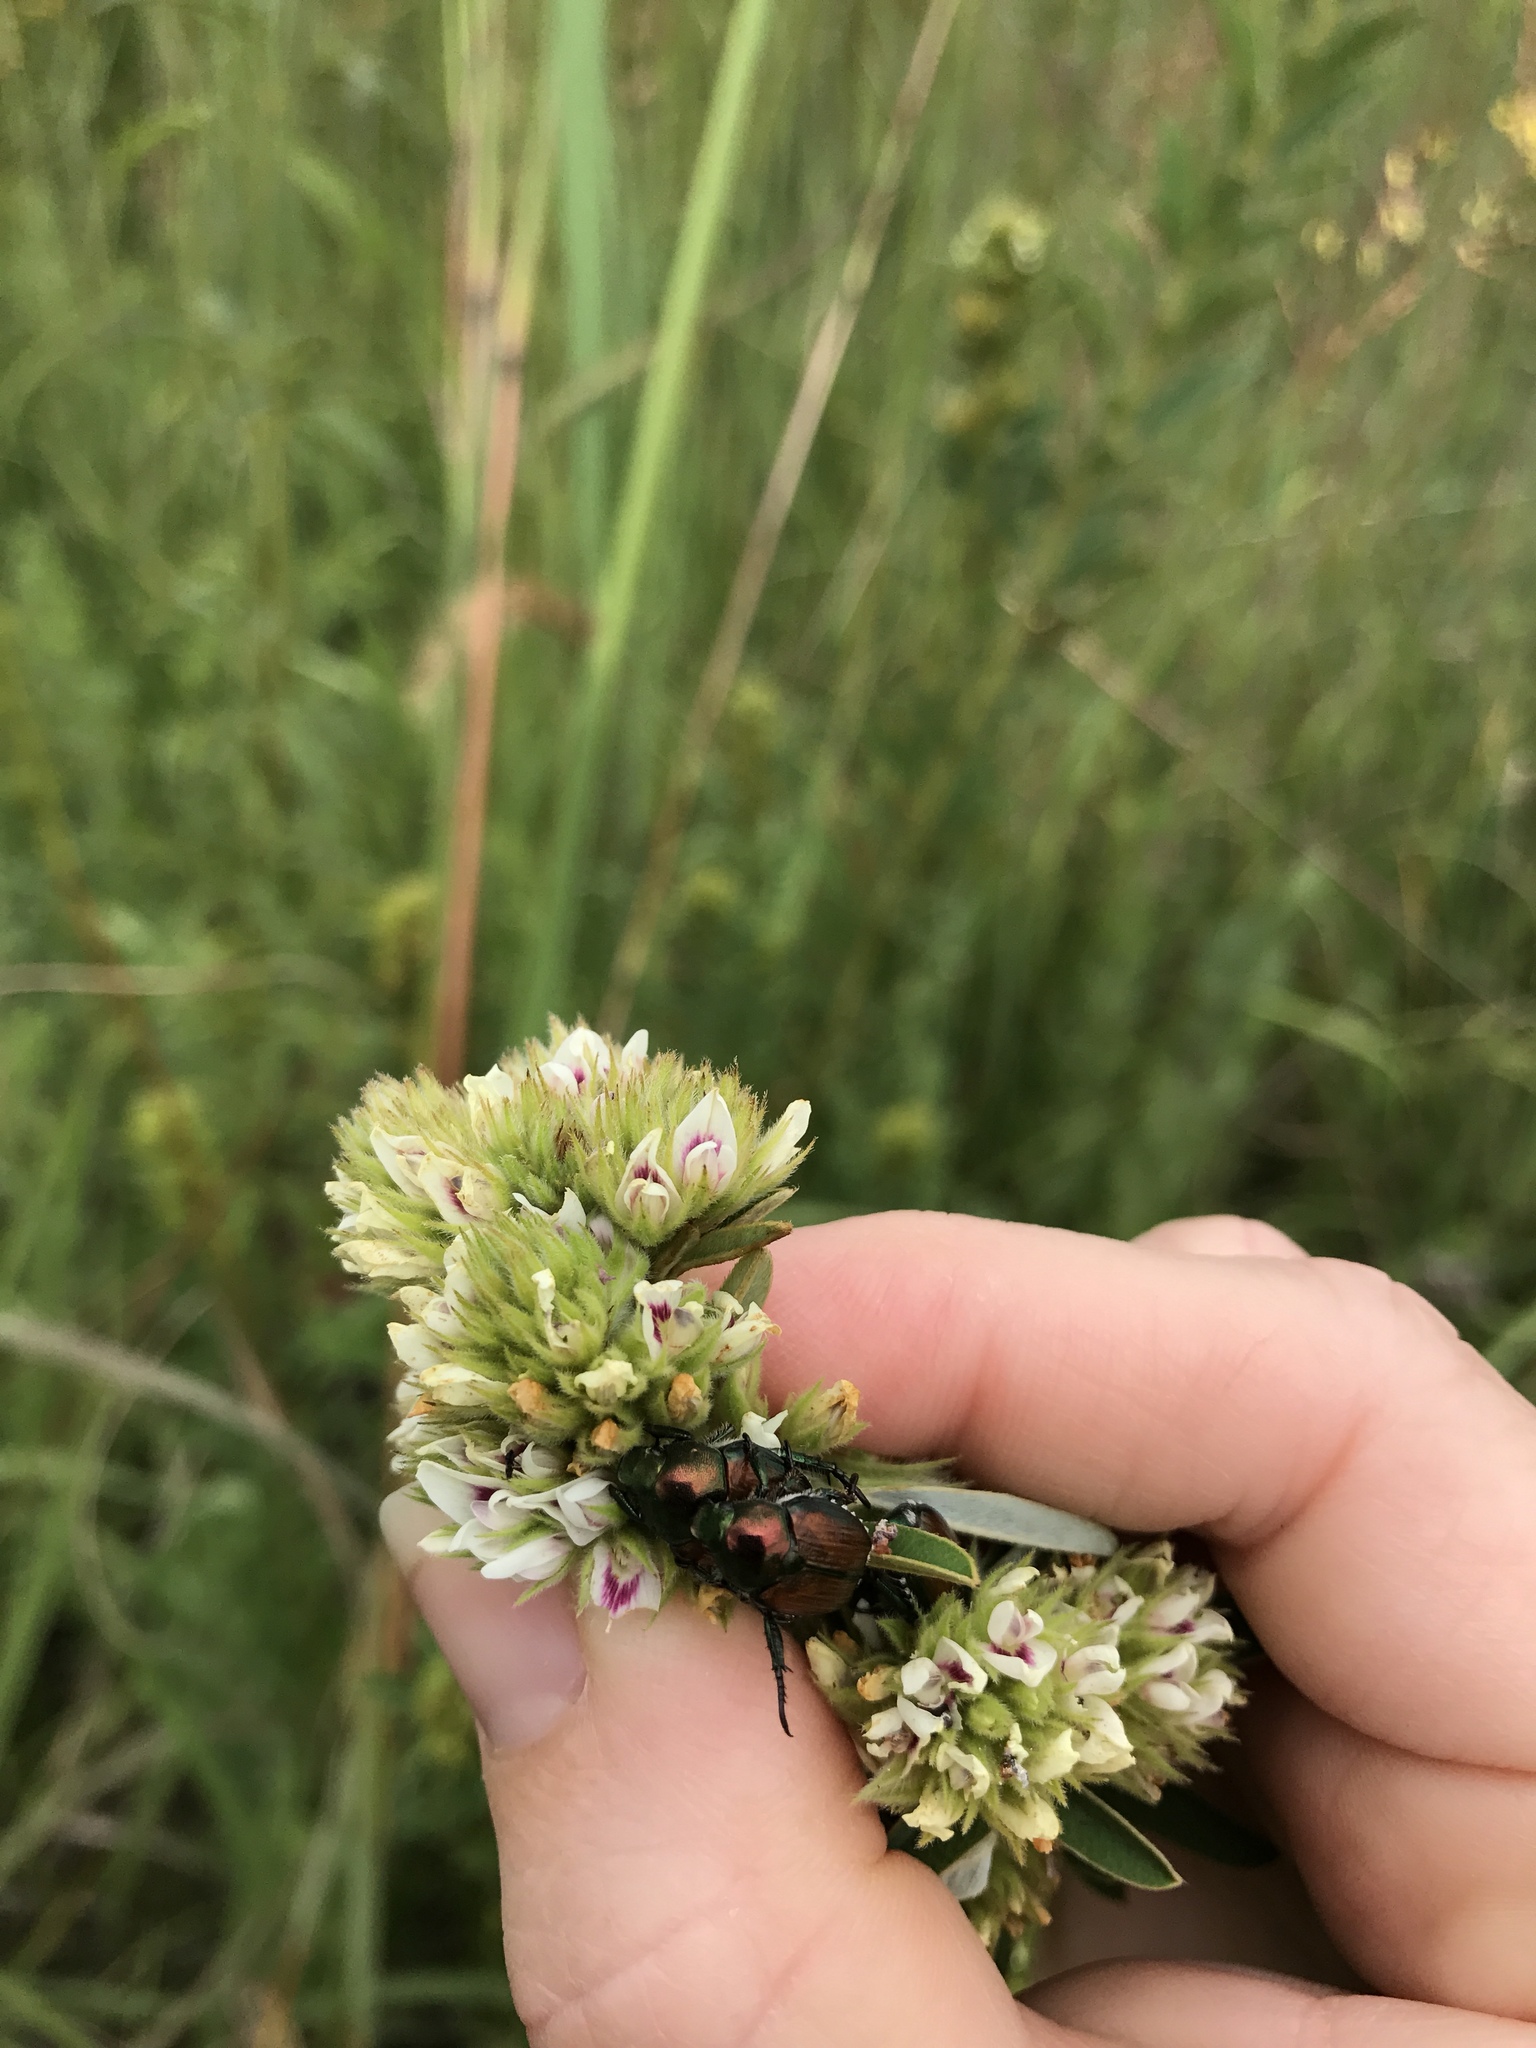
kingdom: Animalia
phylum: Arthropoda
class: Insecta
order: Coleoptera
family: Scarabaeidae
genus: Popillia
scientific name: Popillia japonica
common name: Japanese beetle
